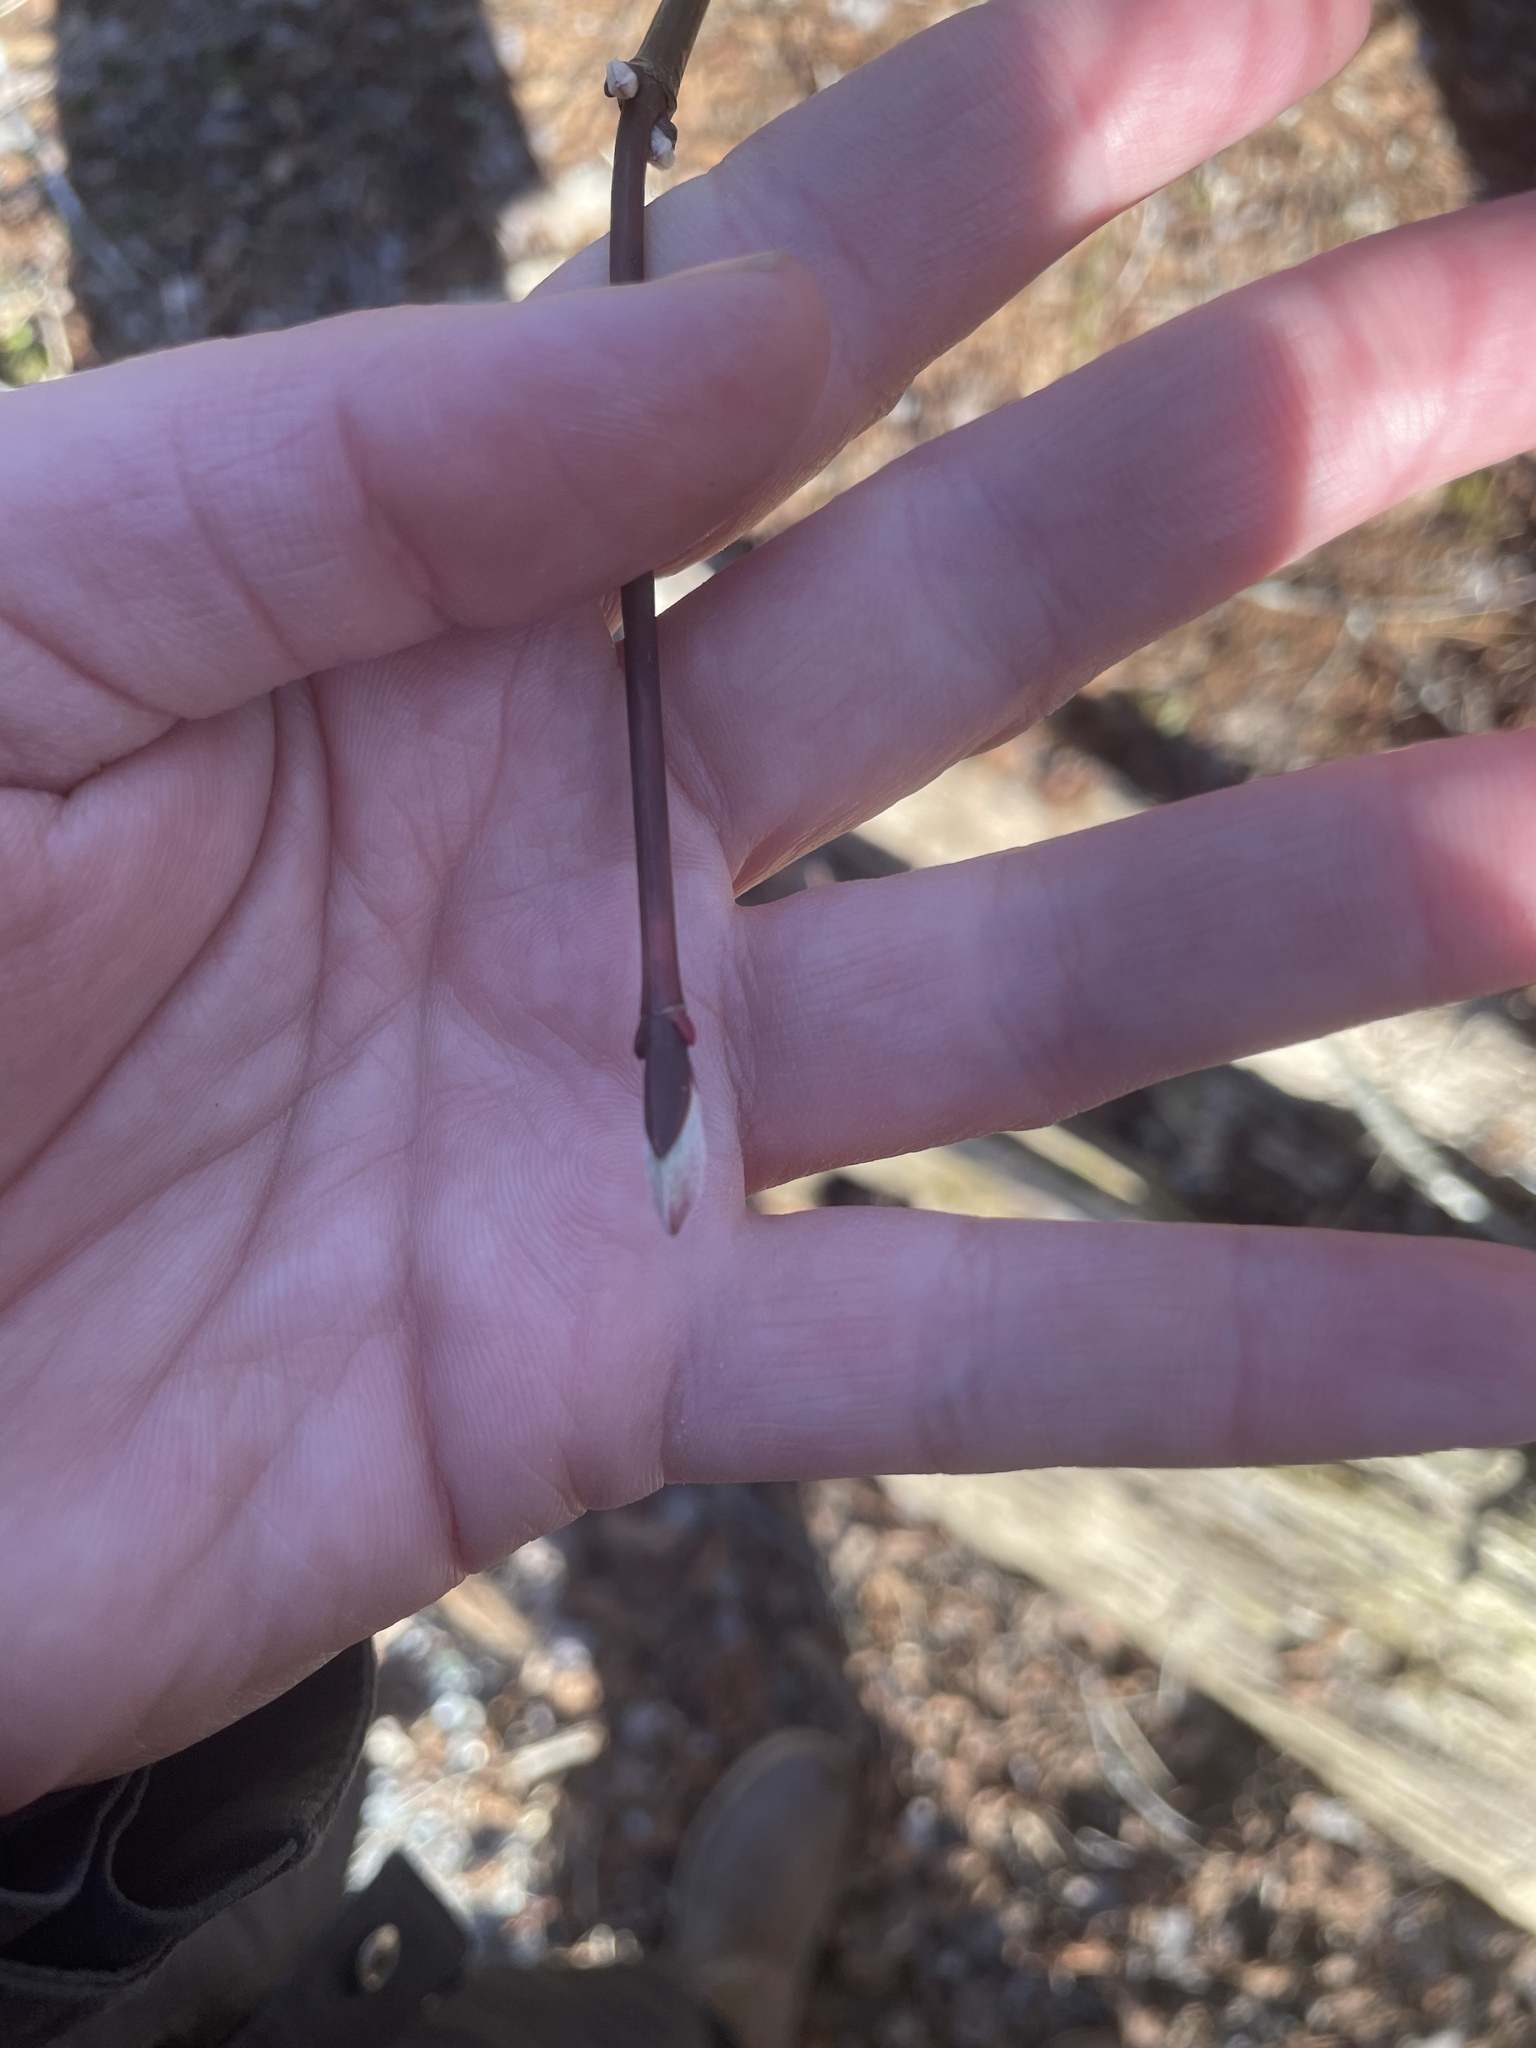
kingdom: Plantae
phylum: Tracheophyta
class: Magnoliopsida
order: Sapindales
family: Sapindaceae
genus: Acer
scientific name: Acer pensylvanicum
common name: Moosewood
